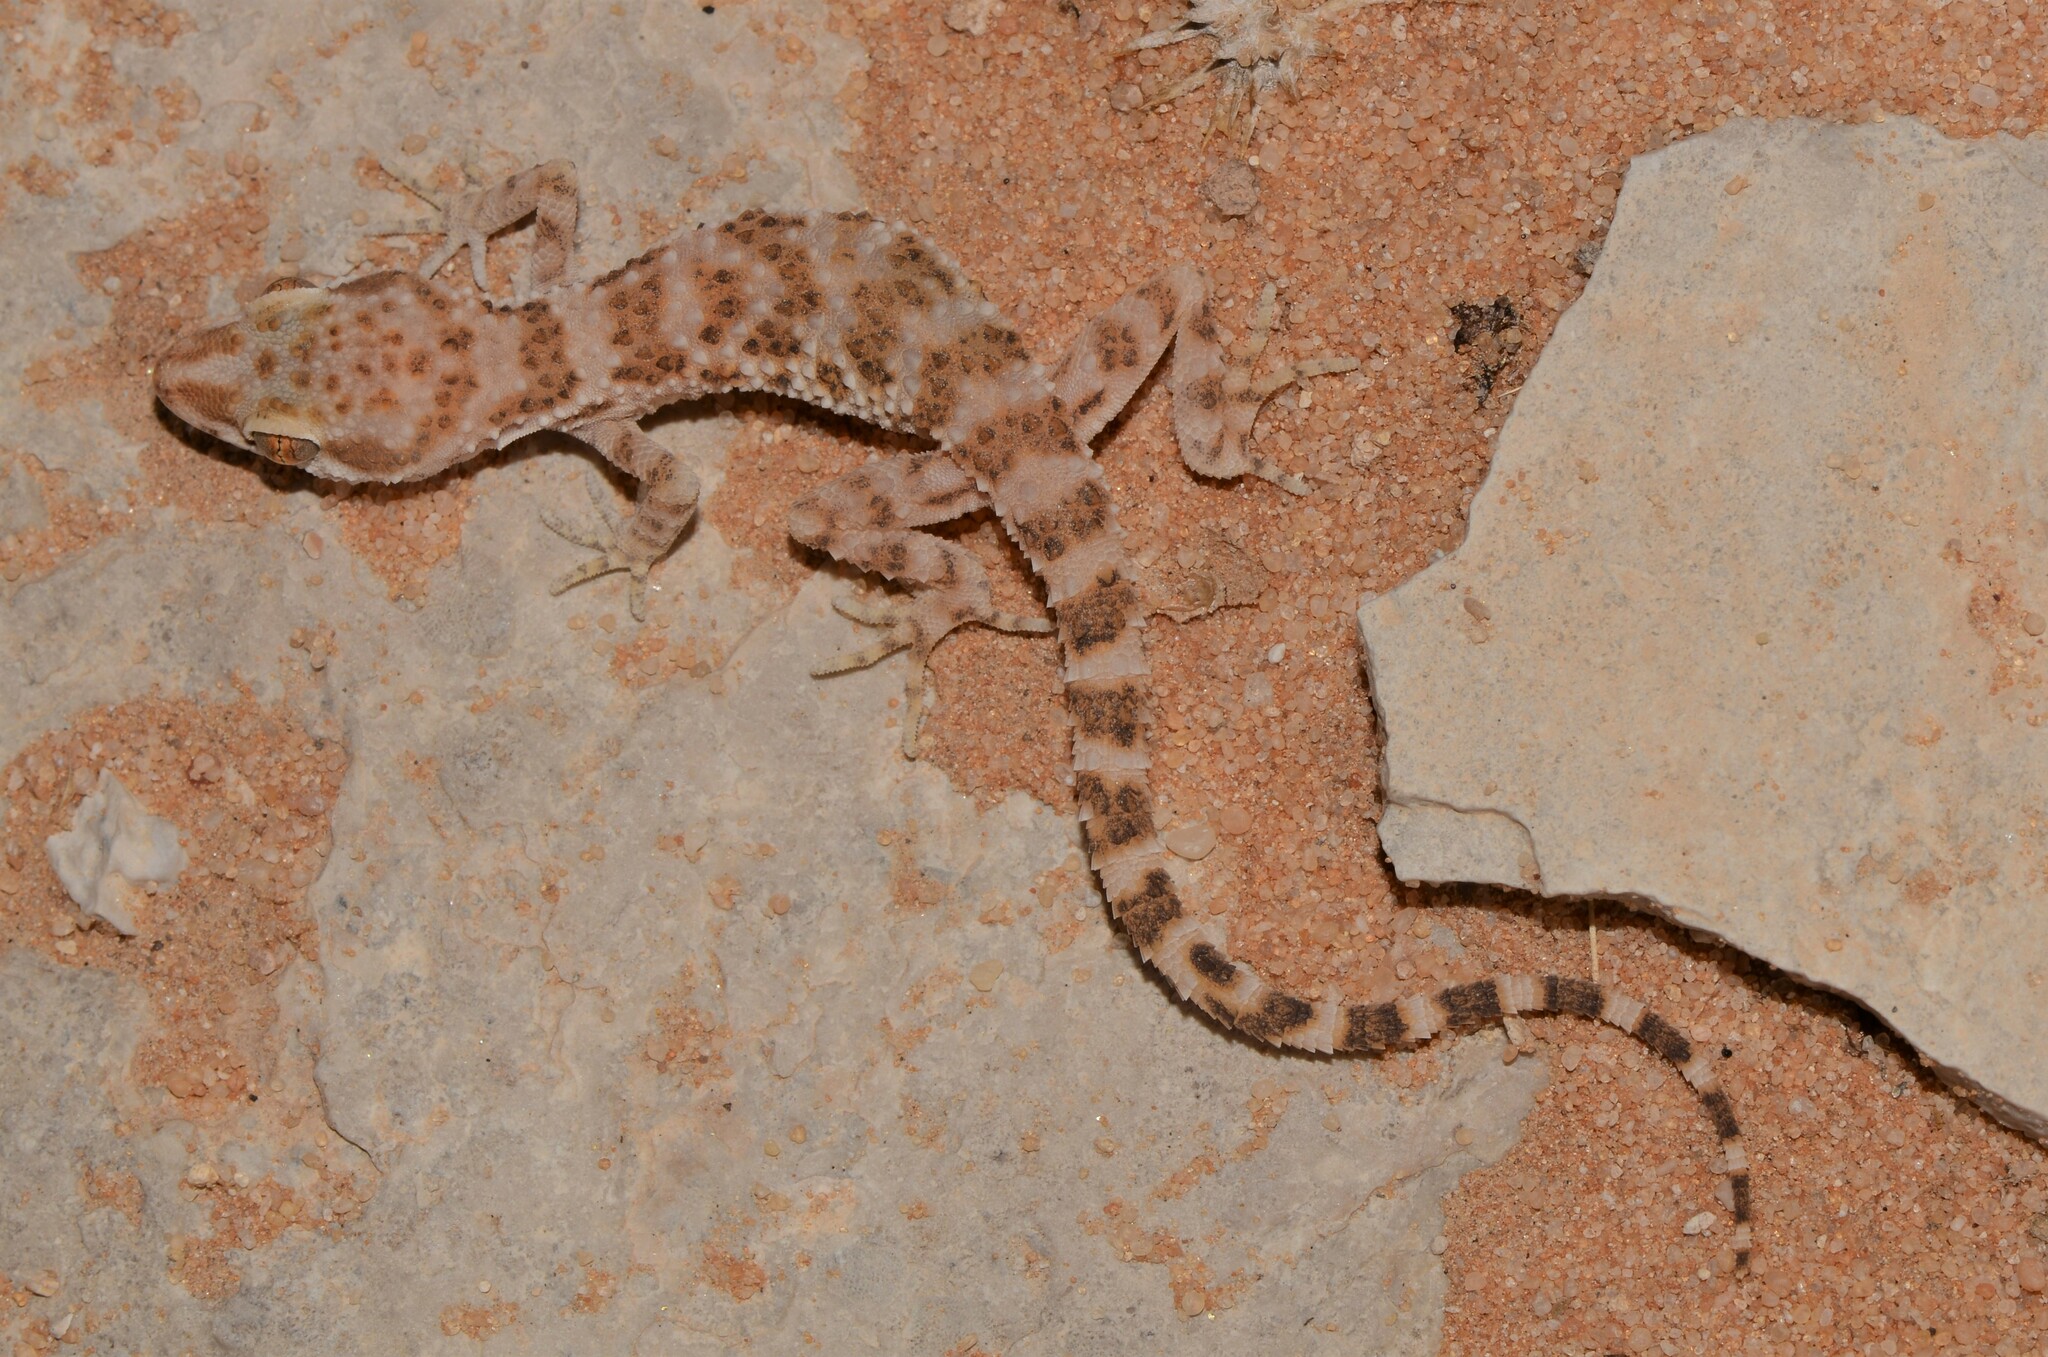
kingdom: Animalia
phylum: Chordata
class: Squamata
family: Gekkonidae
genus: Bunopus
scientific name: Bunopus tuberculatus
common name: Southern tuberculated gecko
